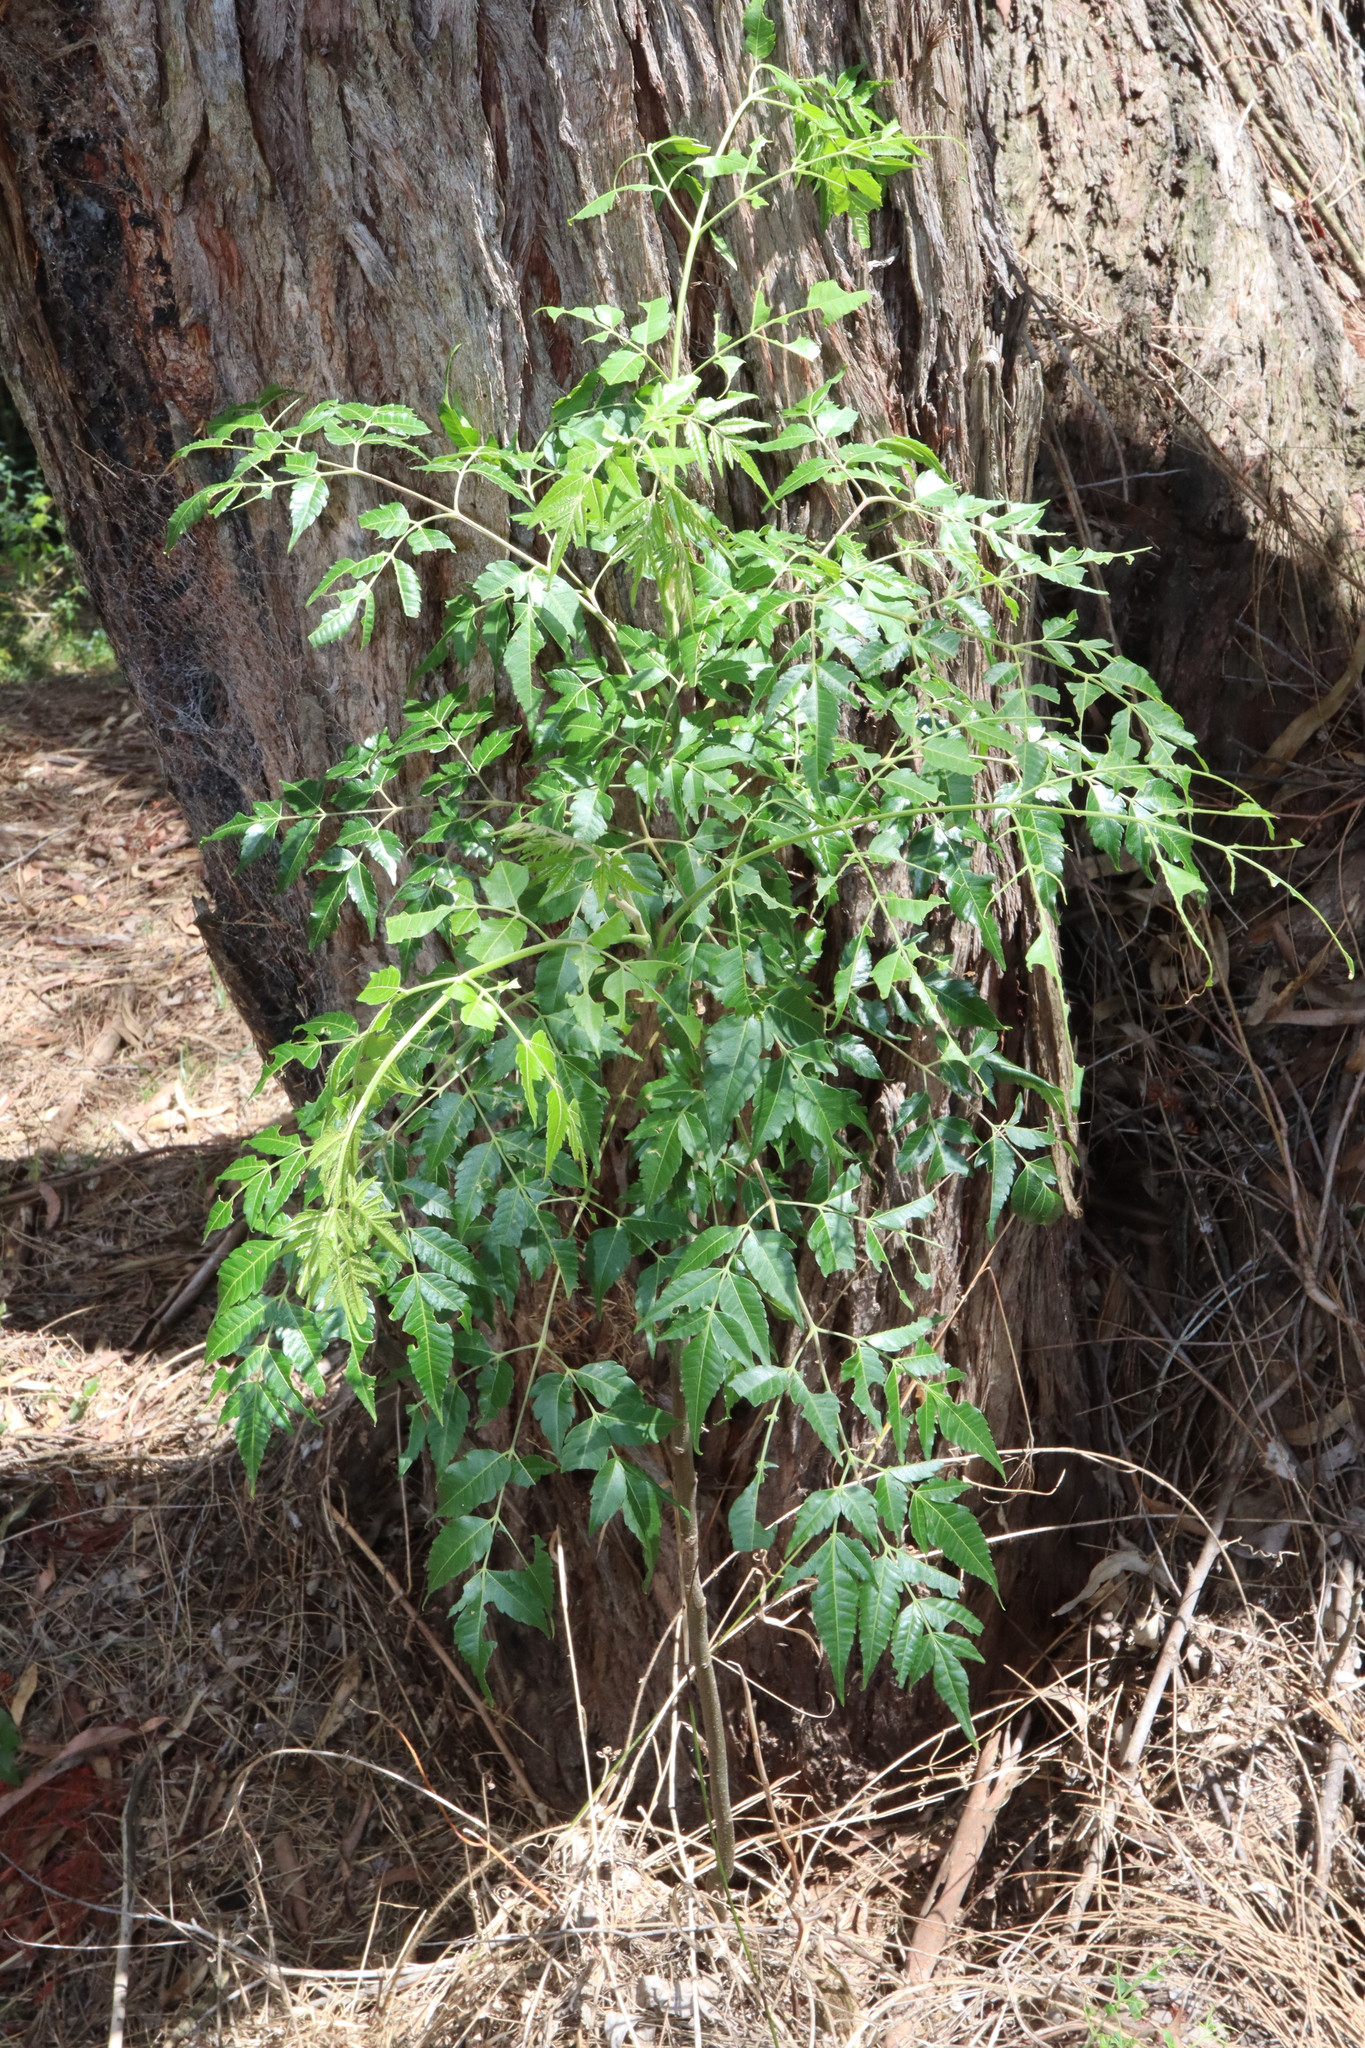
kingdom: Plantae
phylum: Tracheophyta
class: Magnoliopsida
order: Sapindales
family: Meliaceae
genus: Melia
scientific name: Melia azedarach
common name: Chinaberrytree
